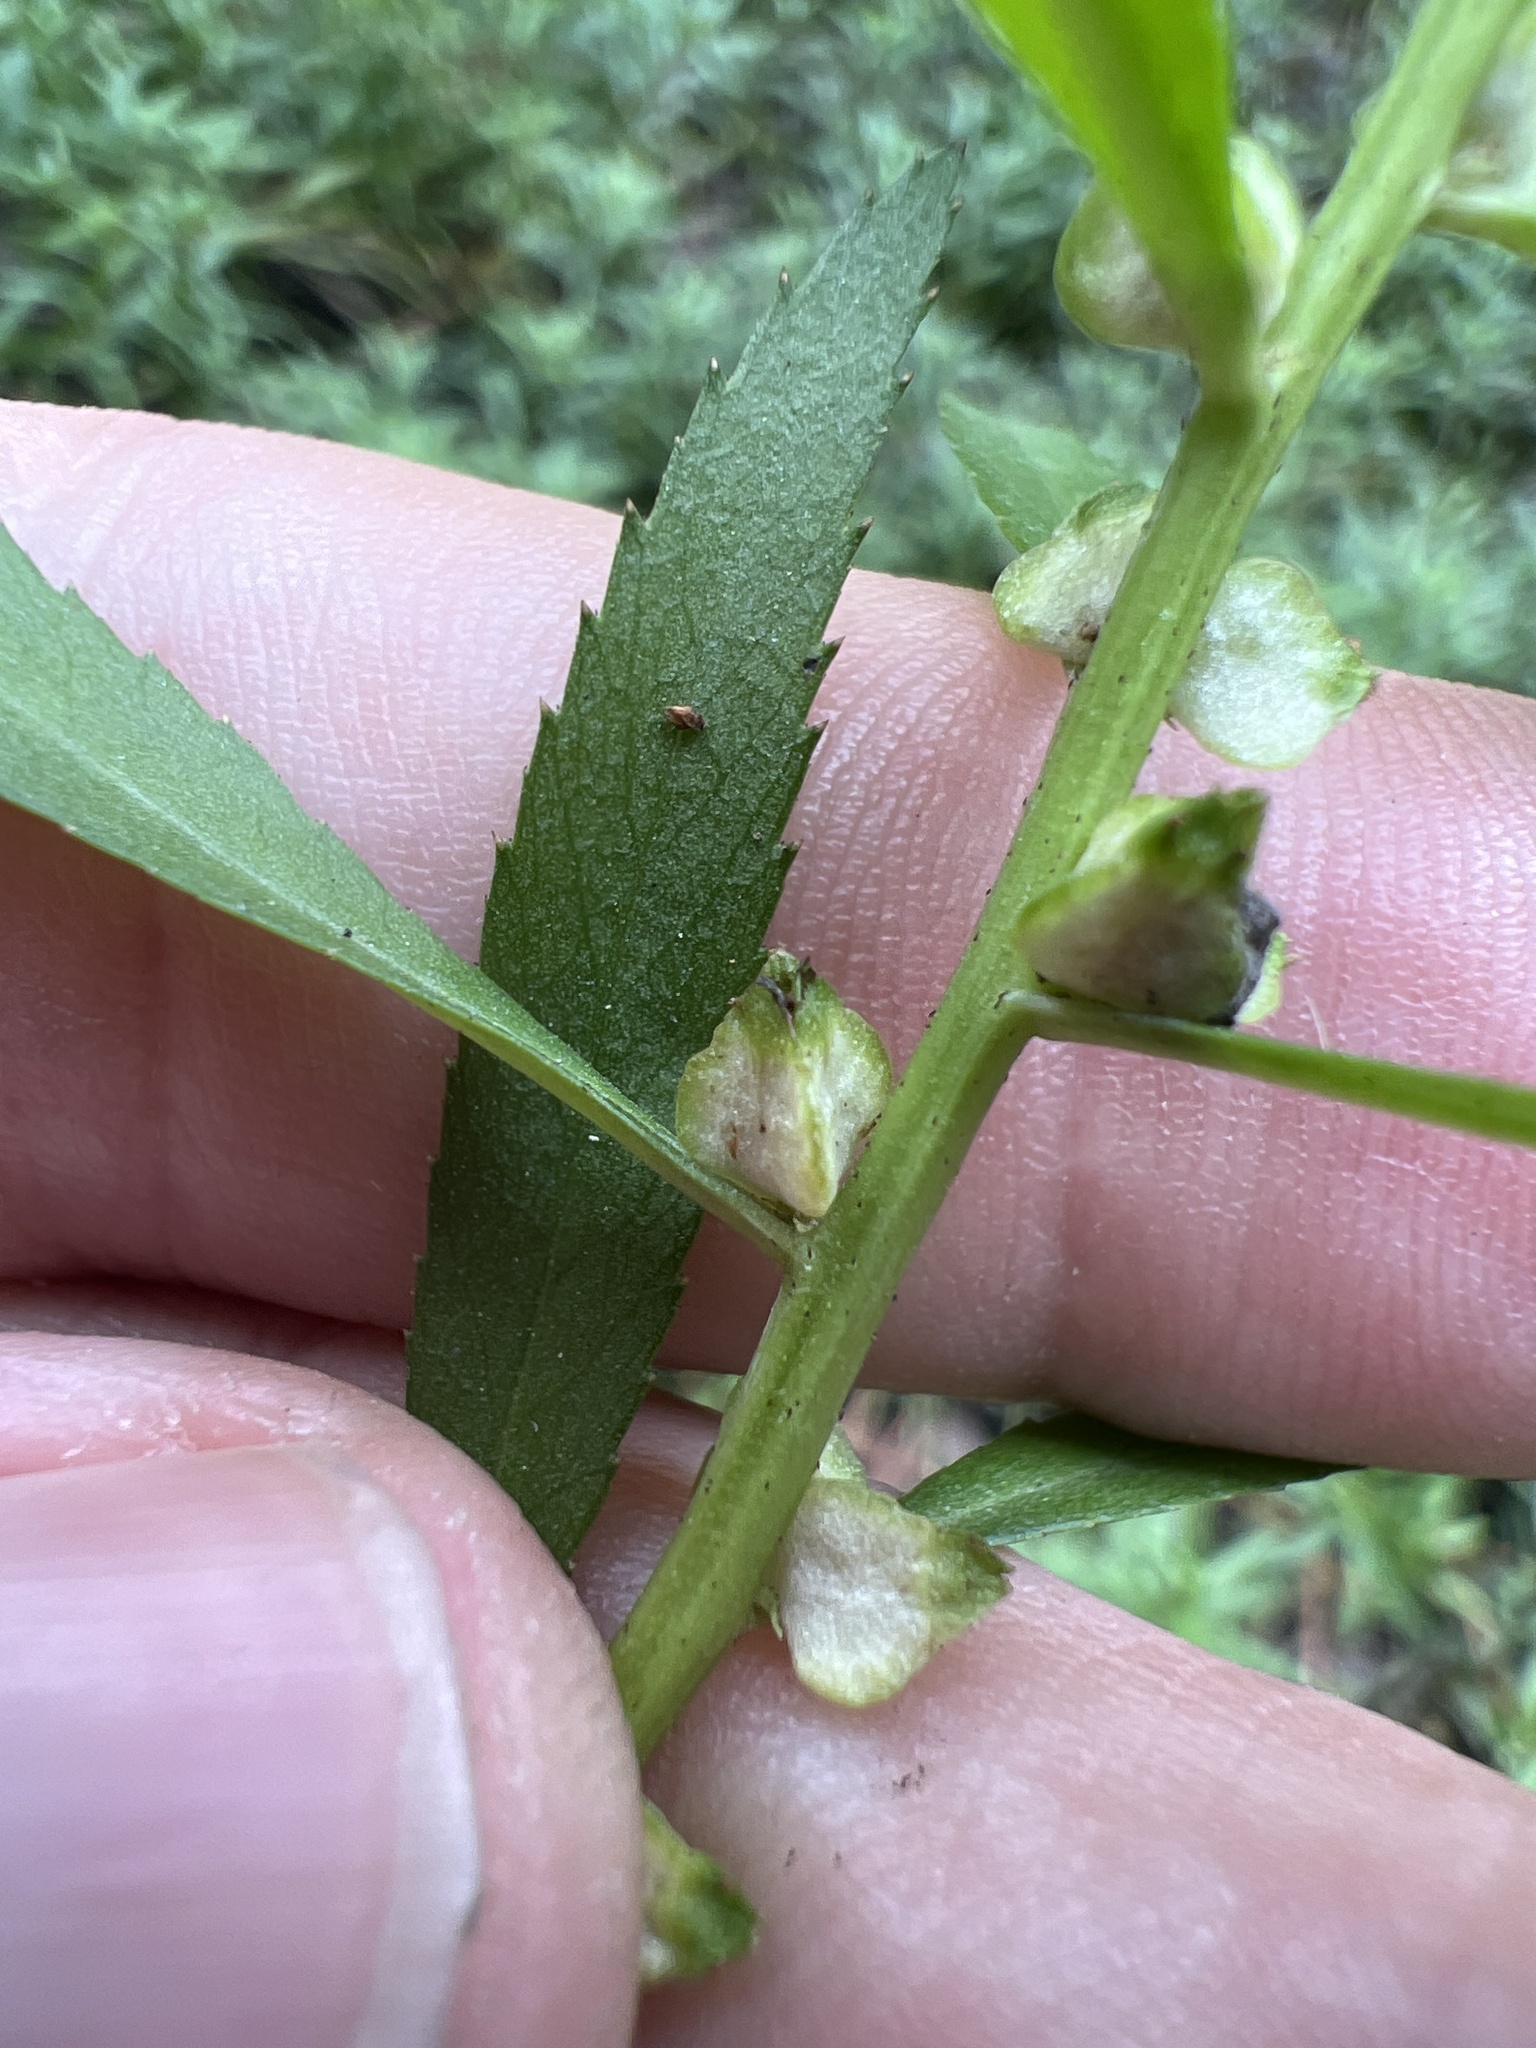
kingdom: Plantae
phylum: Tracheophyta
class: Magnoliopsida
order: Saxifragales
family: Haloragaceae
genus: Proserpinaca
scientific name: Proserpinaca palustris
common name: Marsh mermaidweed
